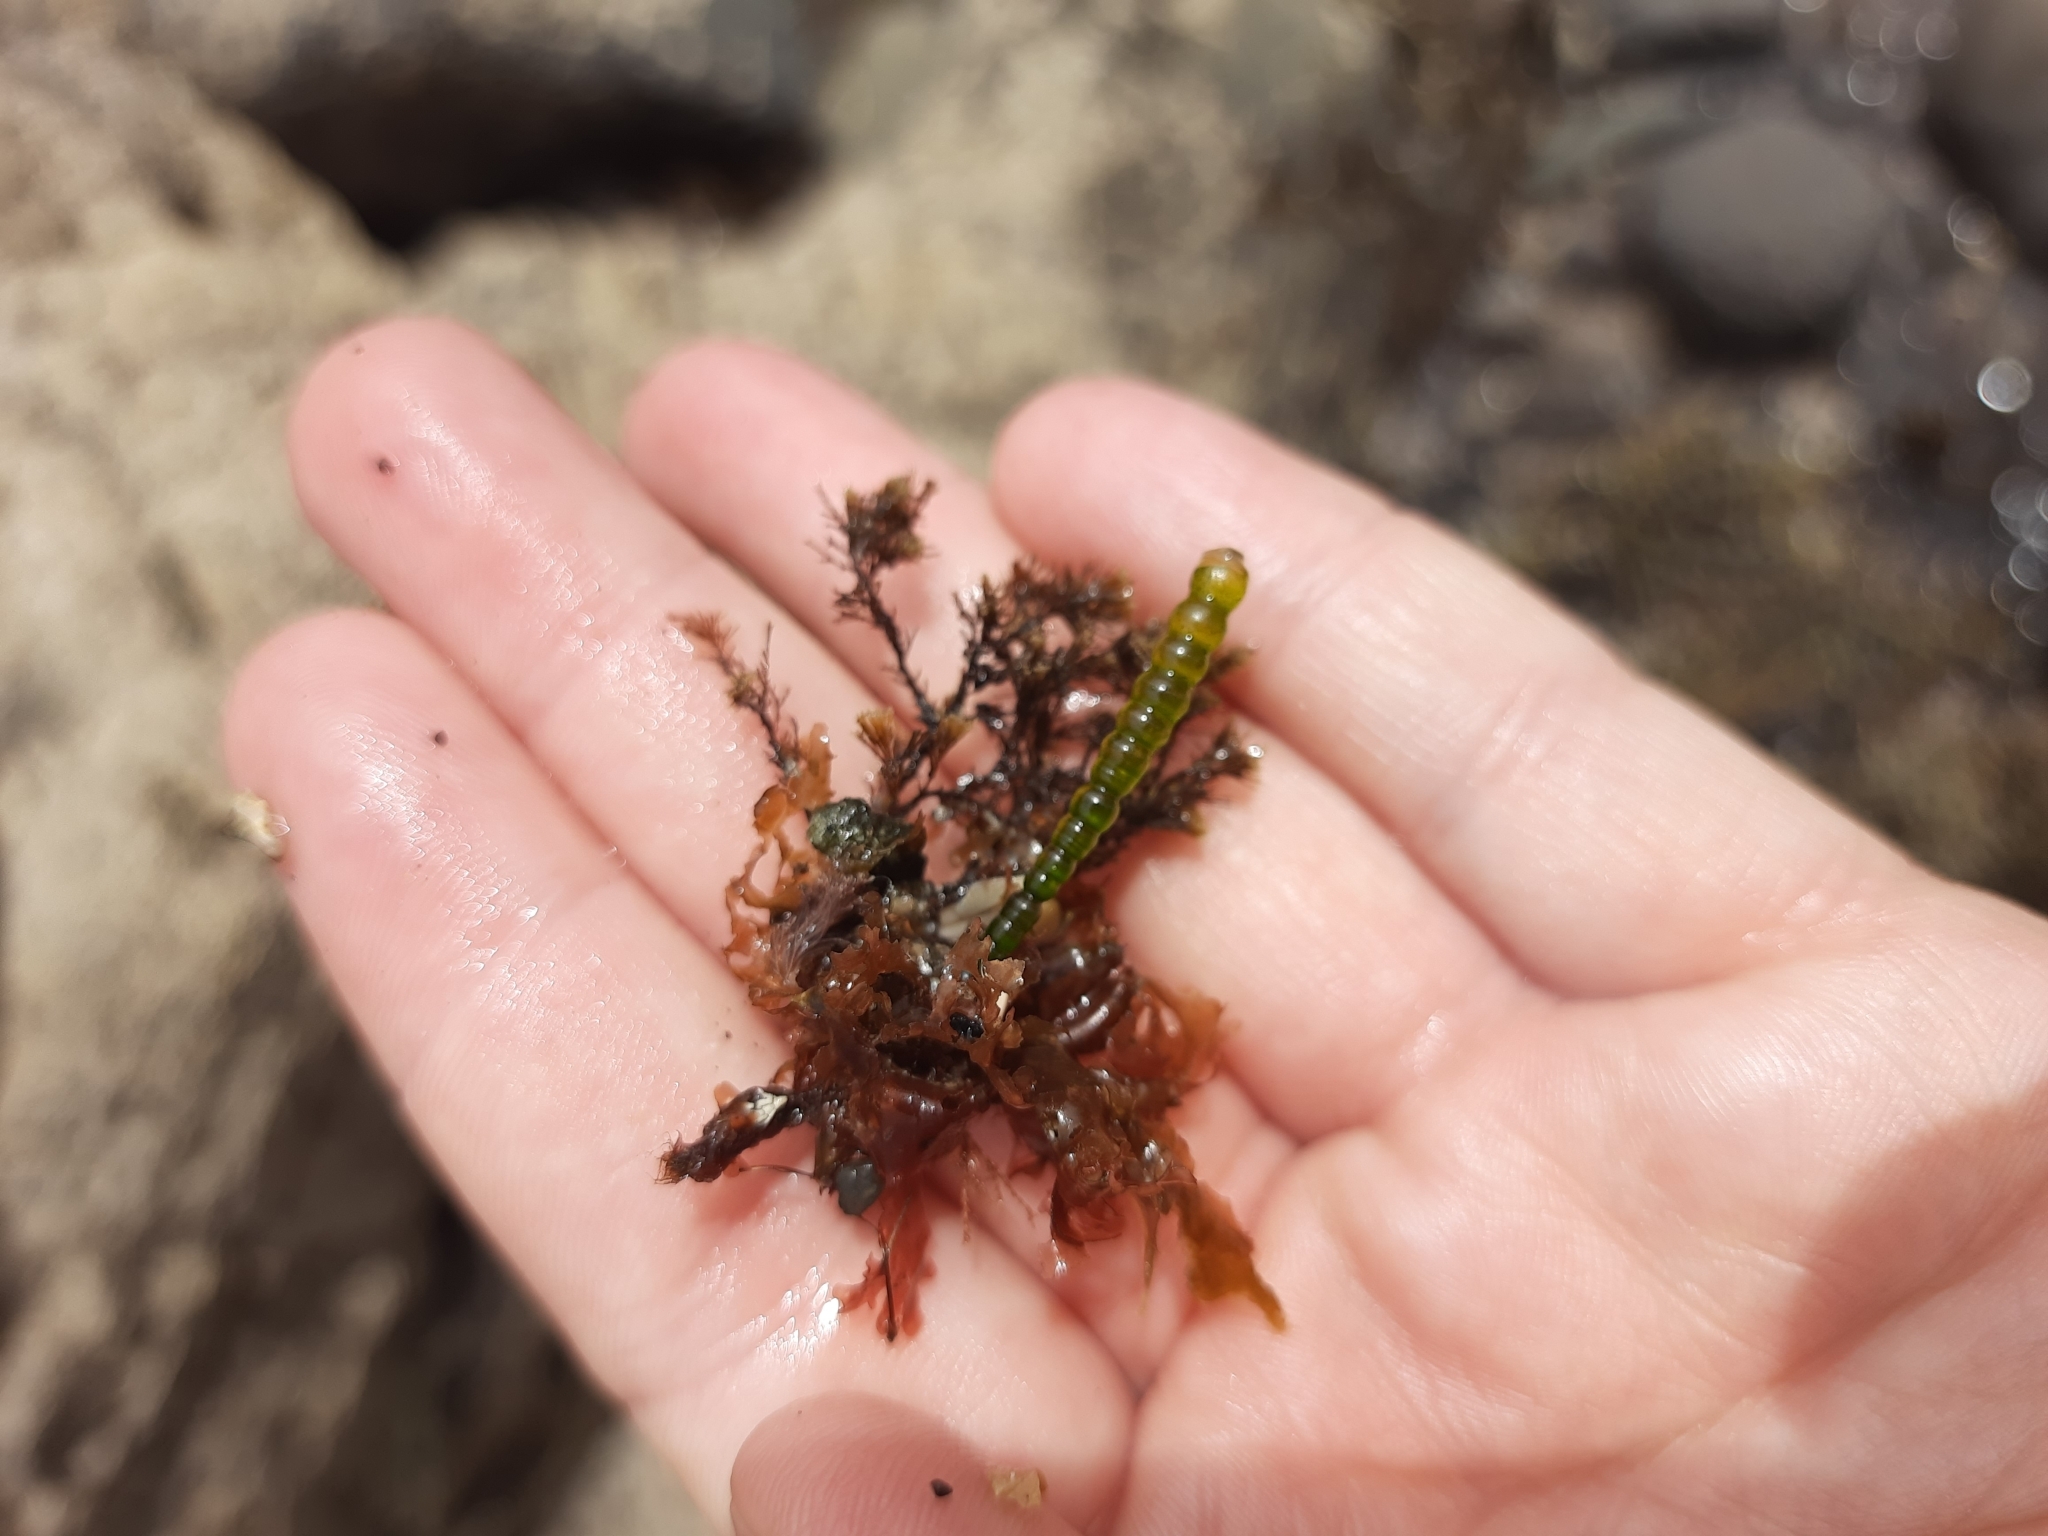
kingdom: Plantae
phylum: Chlorophyta
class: Ulvophyceae
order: Cladophorales
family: Cladophoraceae
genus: Chaetomorpha
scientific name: Chaetomorpha coliformis
